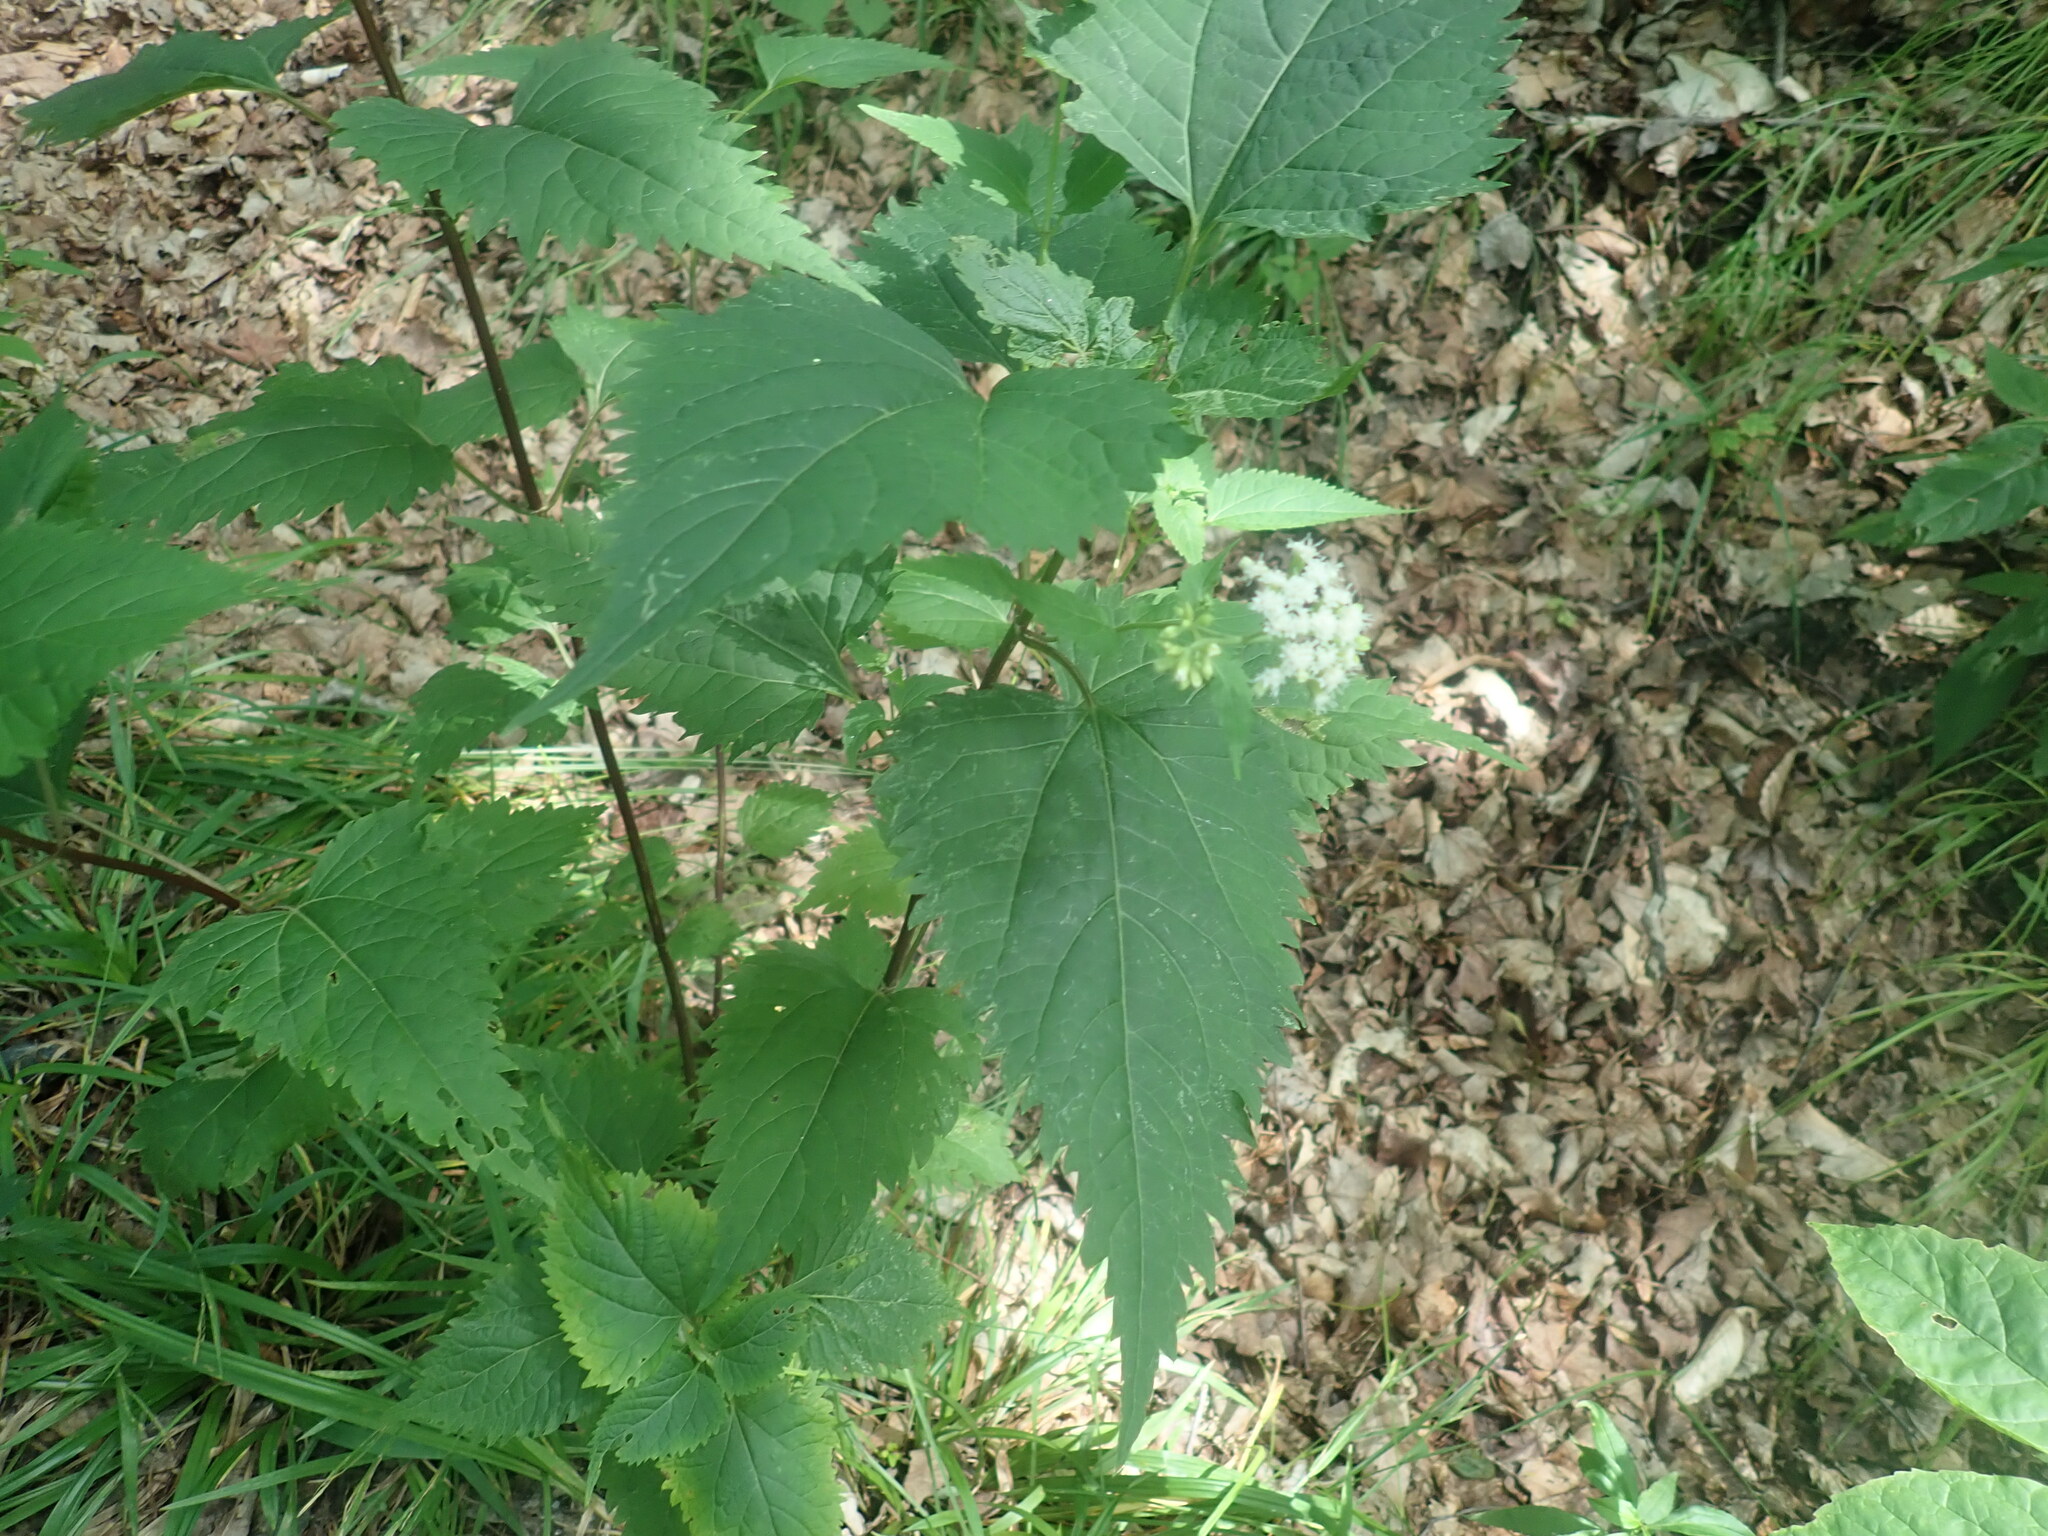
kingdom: Plantae
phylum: Tracheophyta
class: Magnoliopsida
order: Asterales
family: Asteraceae
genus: Ageratina
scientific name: Ageratina altissima
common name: White snakeroot
